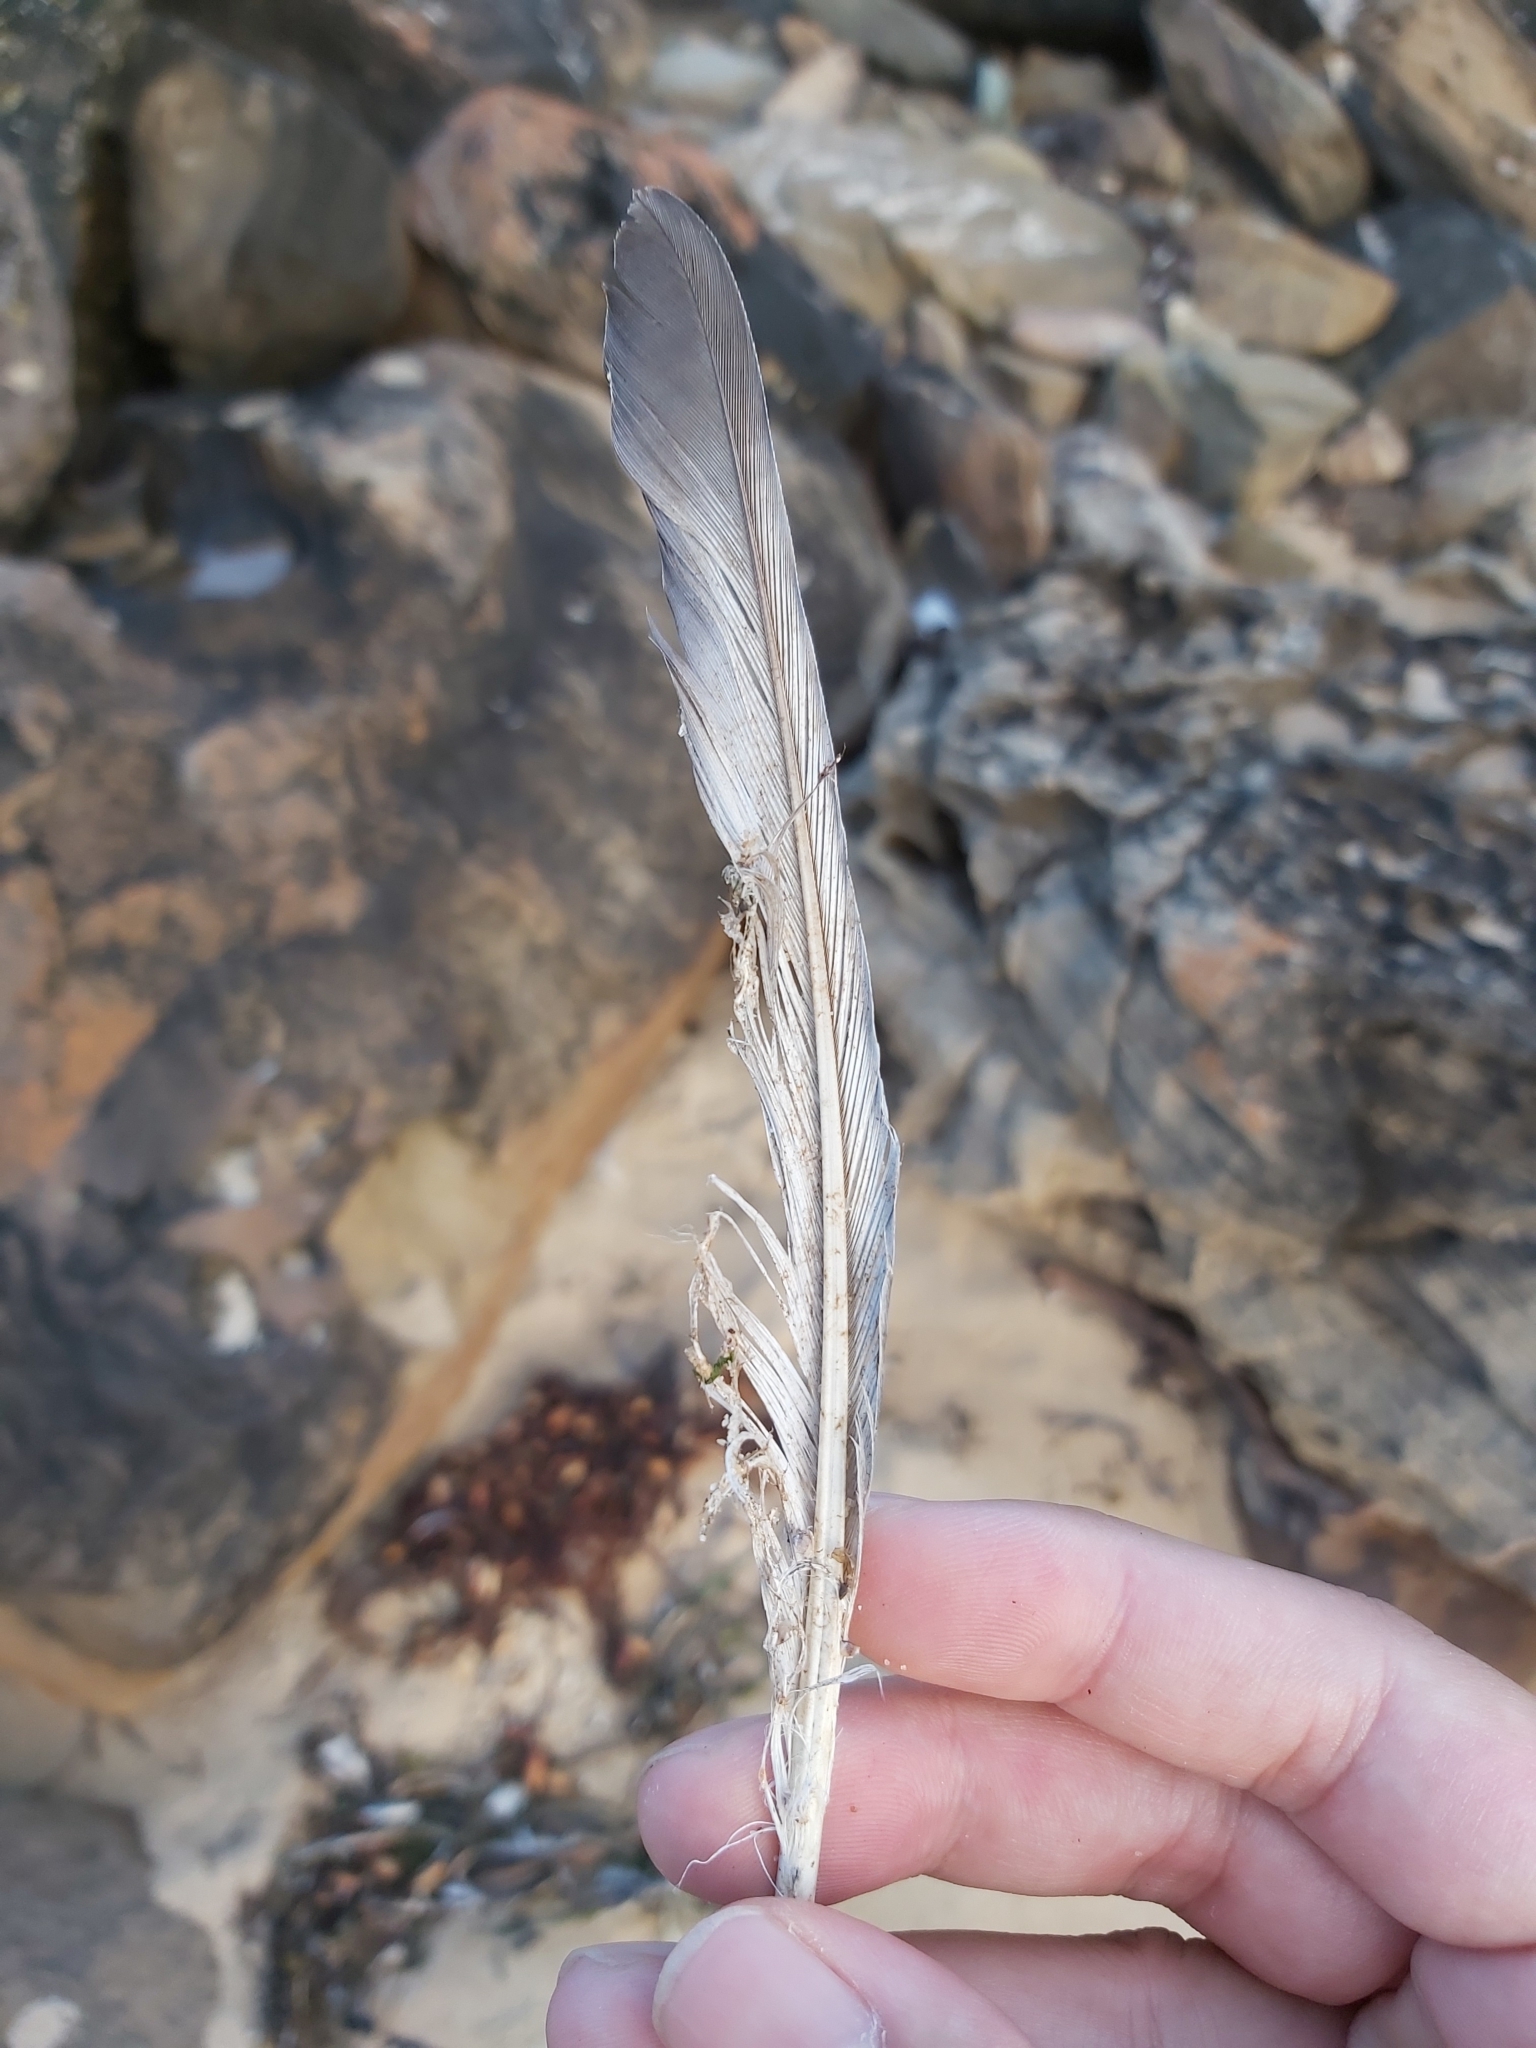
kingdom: Animalia
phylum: Chordata
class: Aves
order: Columbiformes
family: Columbidae
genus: Columba
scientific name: Columba livia
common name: Rock pigeon
